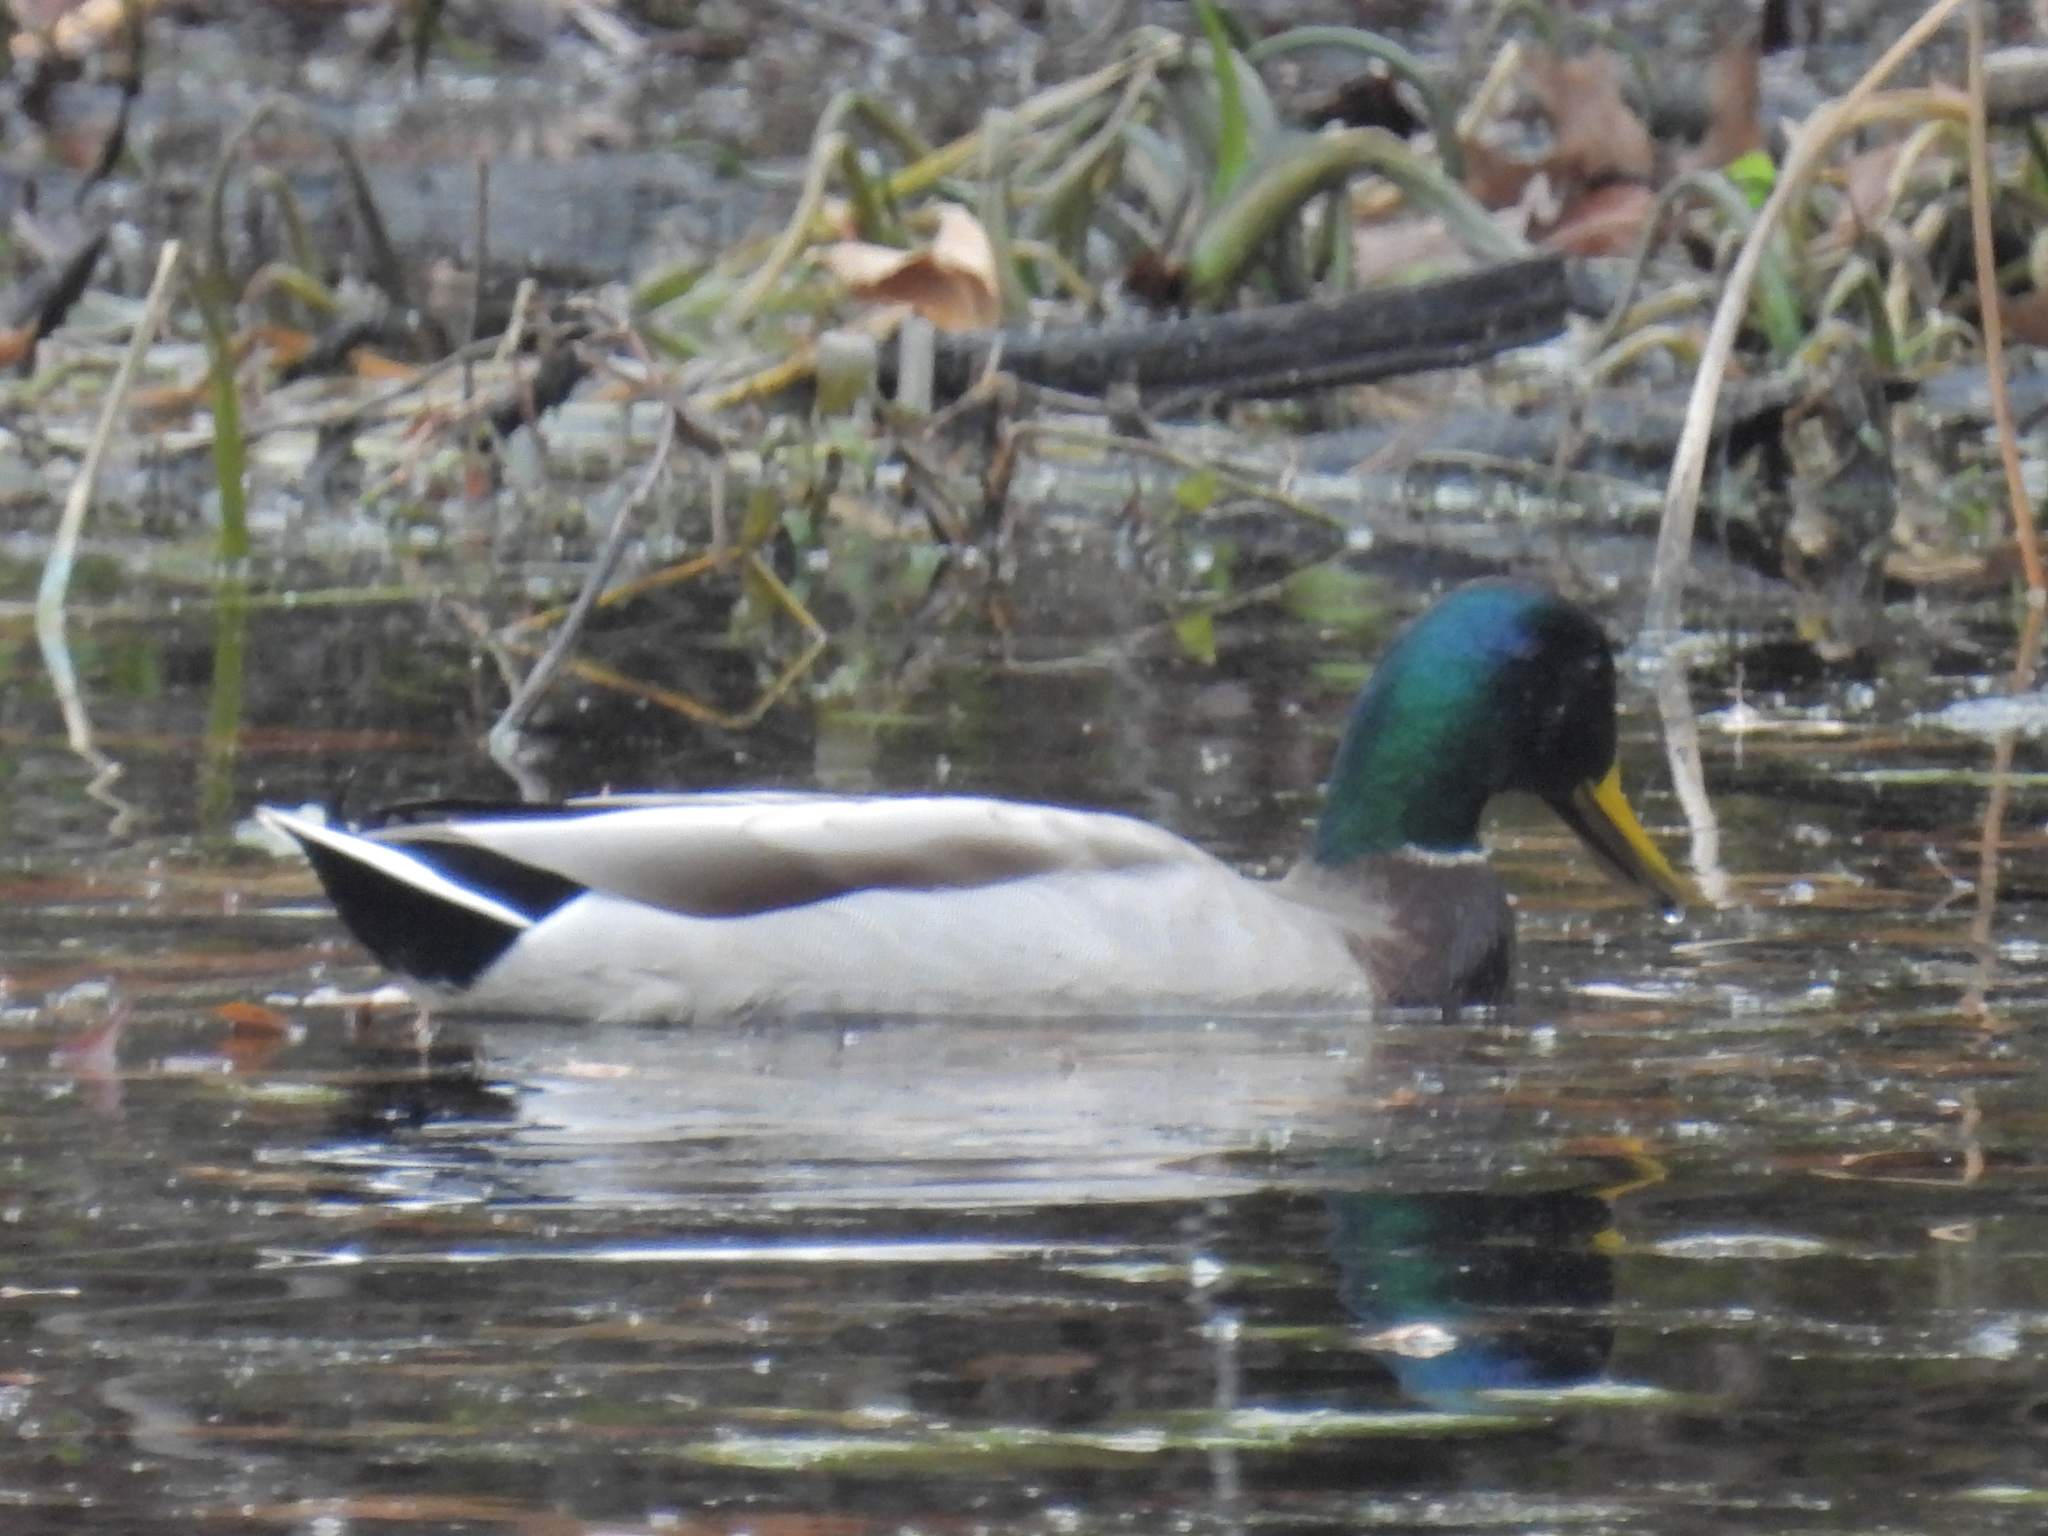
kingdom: Animalia
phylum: Chordata
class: Aves
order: Anseriformes
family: Anatidae
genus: Anas
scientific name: Anas platyrhynchos
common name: Mallard
